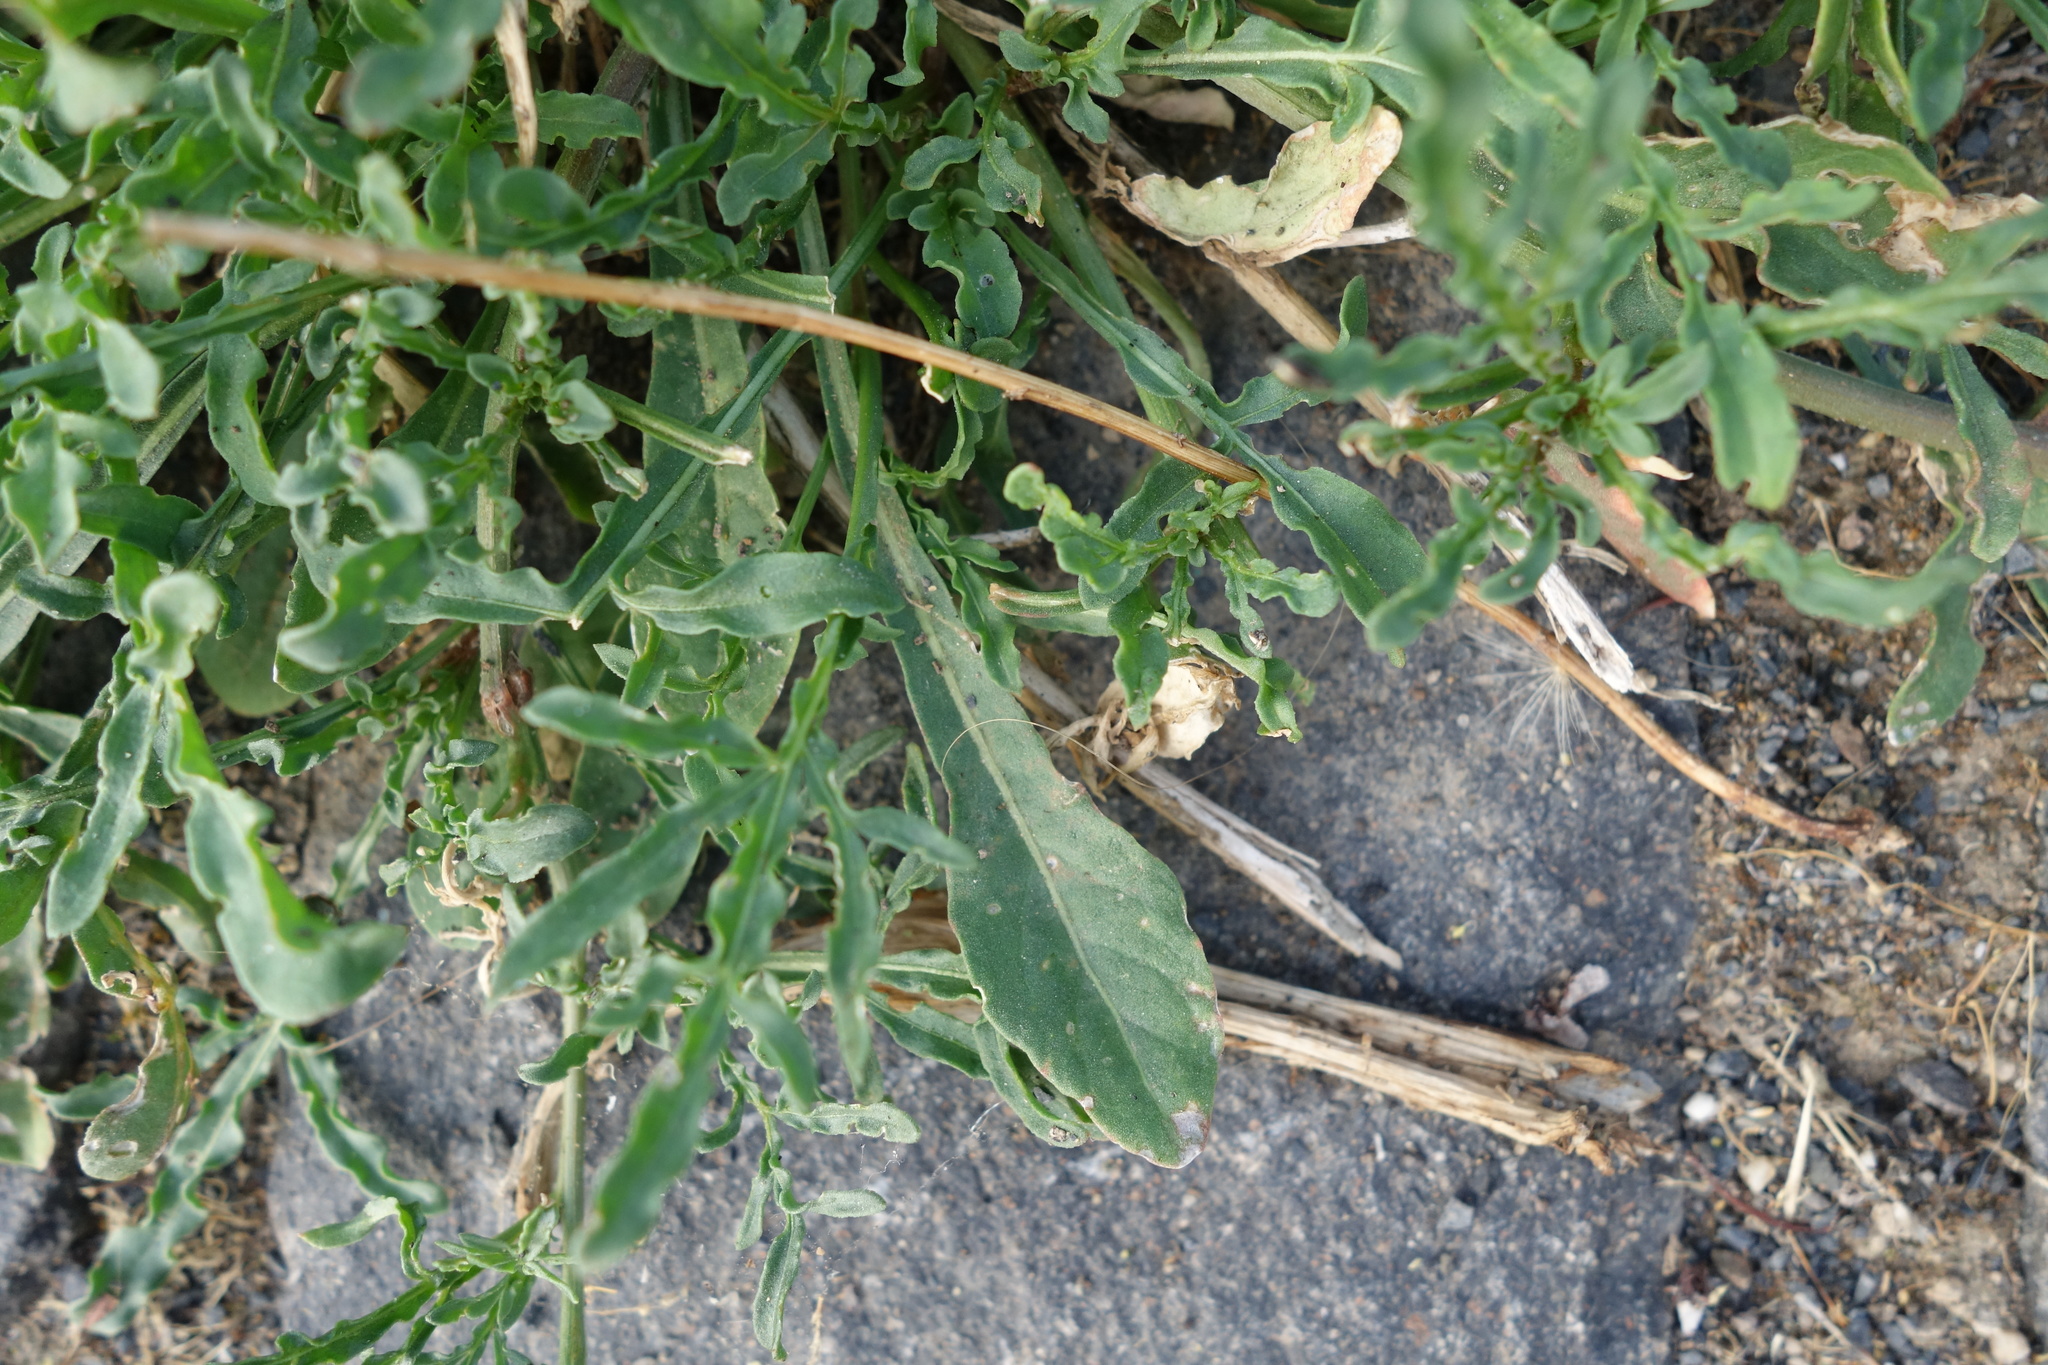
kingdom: Plantae
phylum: Tracheophyta
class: Magnoliopsida
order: Brassicales
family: Resedaceae
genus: Reseda
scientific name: Reseda lutea
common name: Wild mignonette
